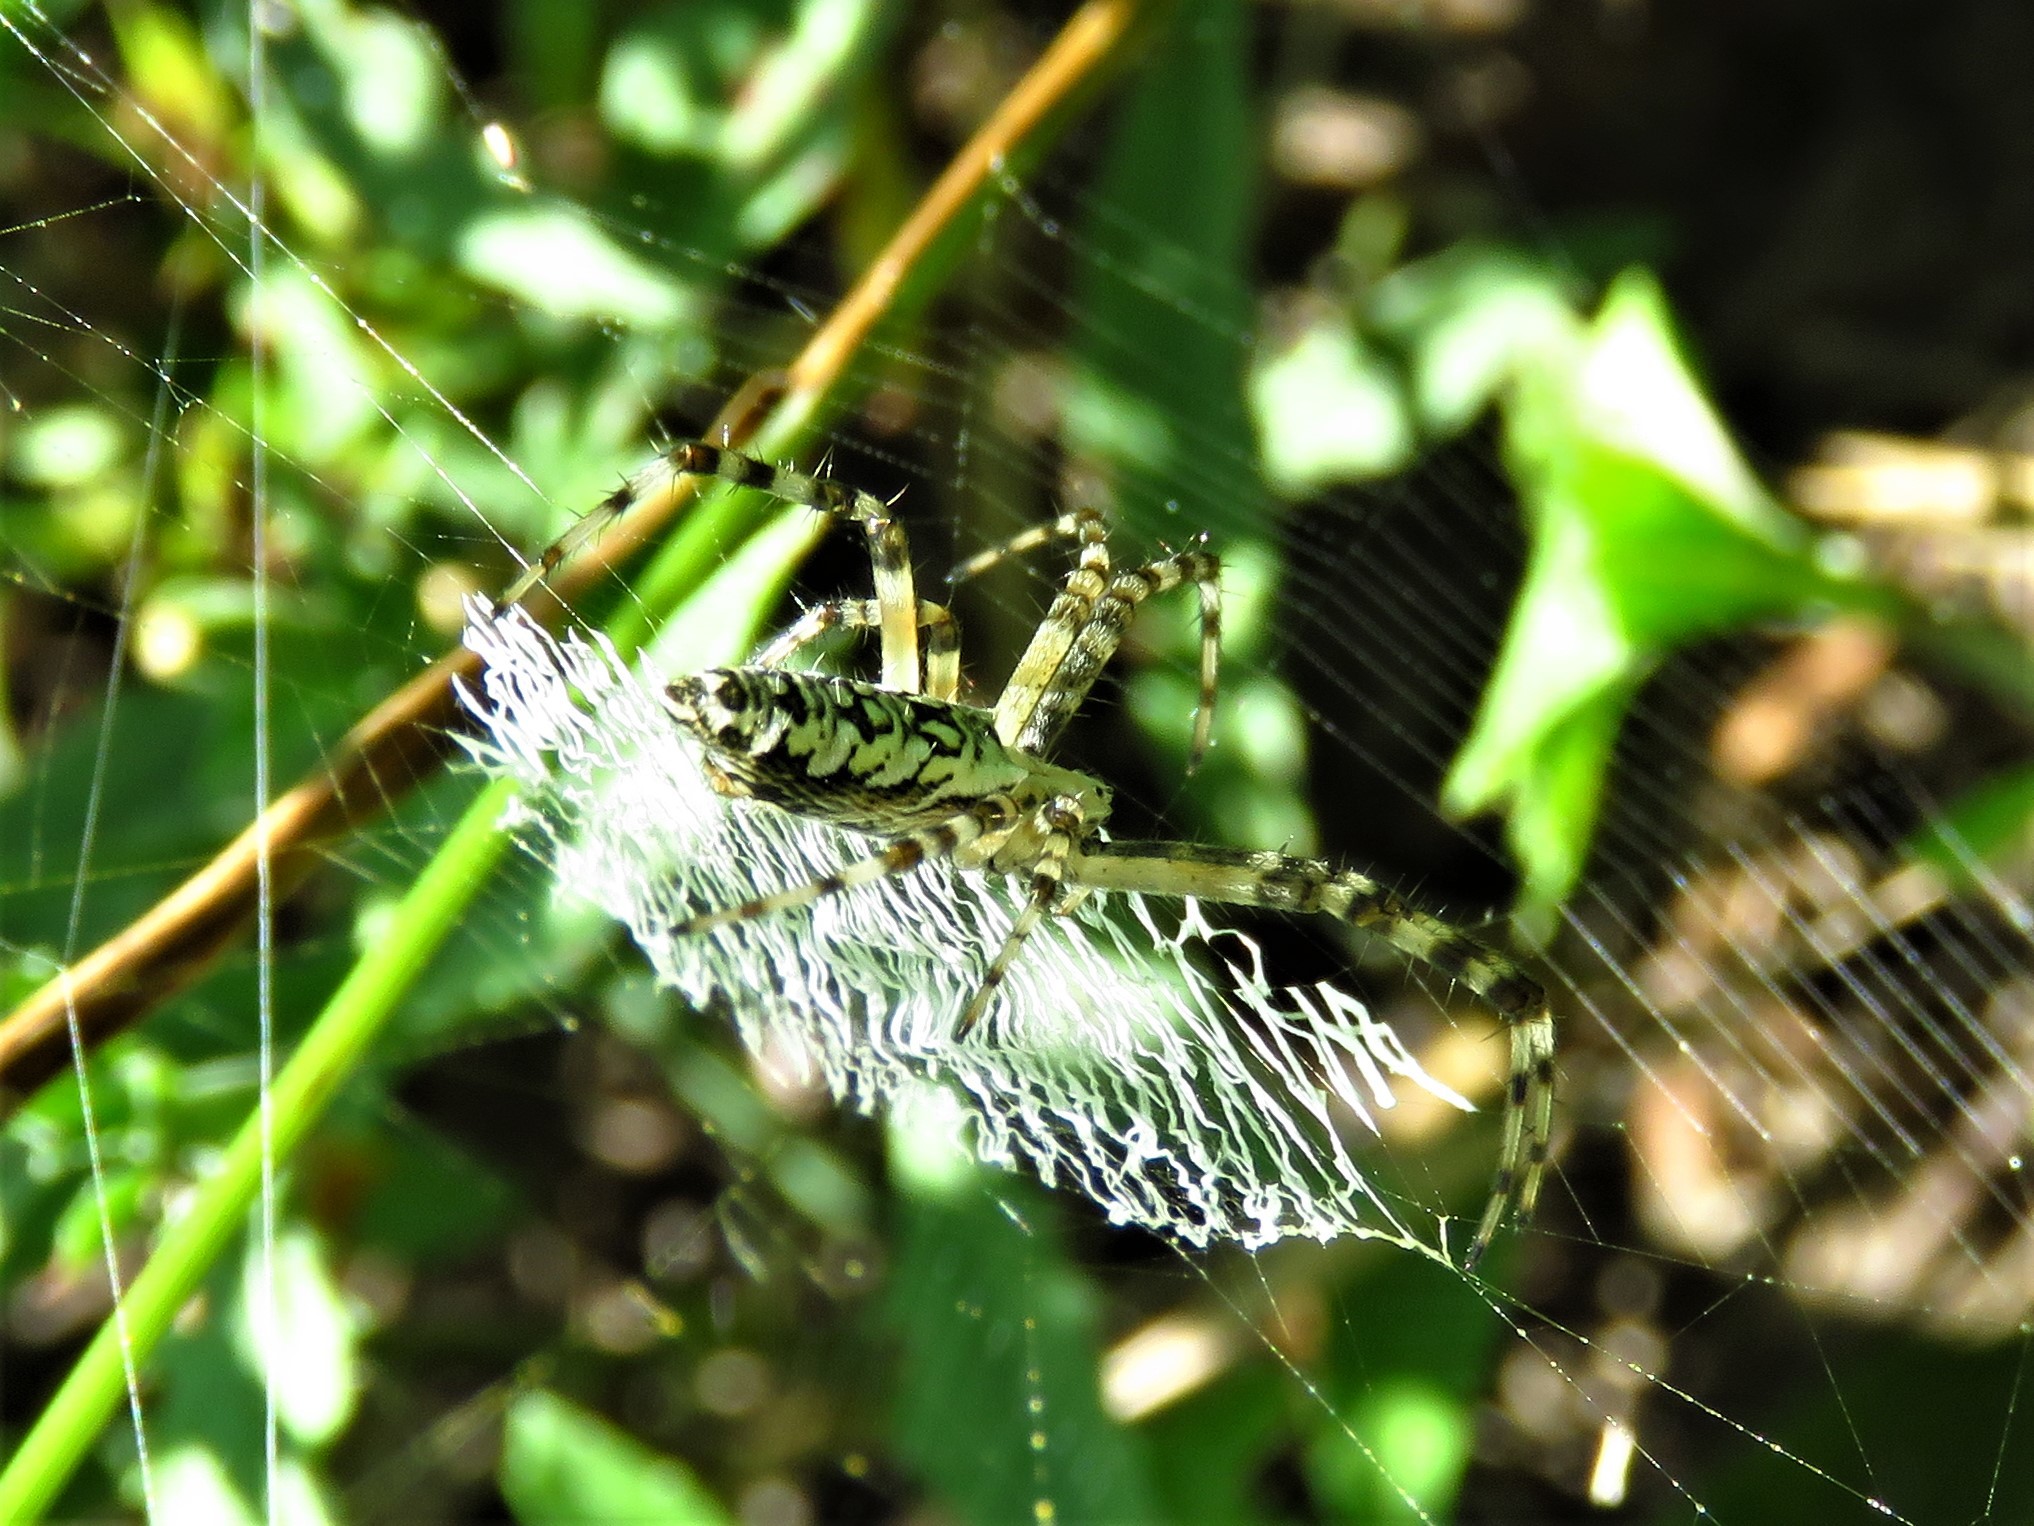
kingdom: Animalia
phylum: Arthropoda
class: Arachnida
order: Araneae
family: Araneidae
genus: Argiope
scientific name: Argiope aurantia
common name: Orb weavers
